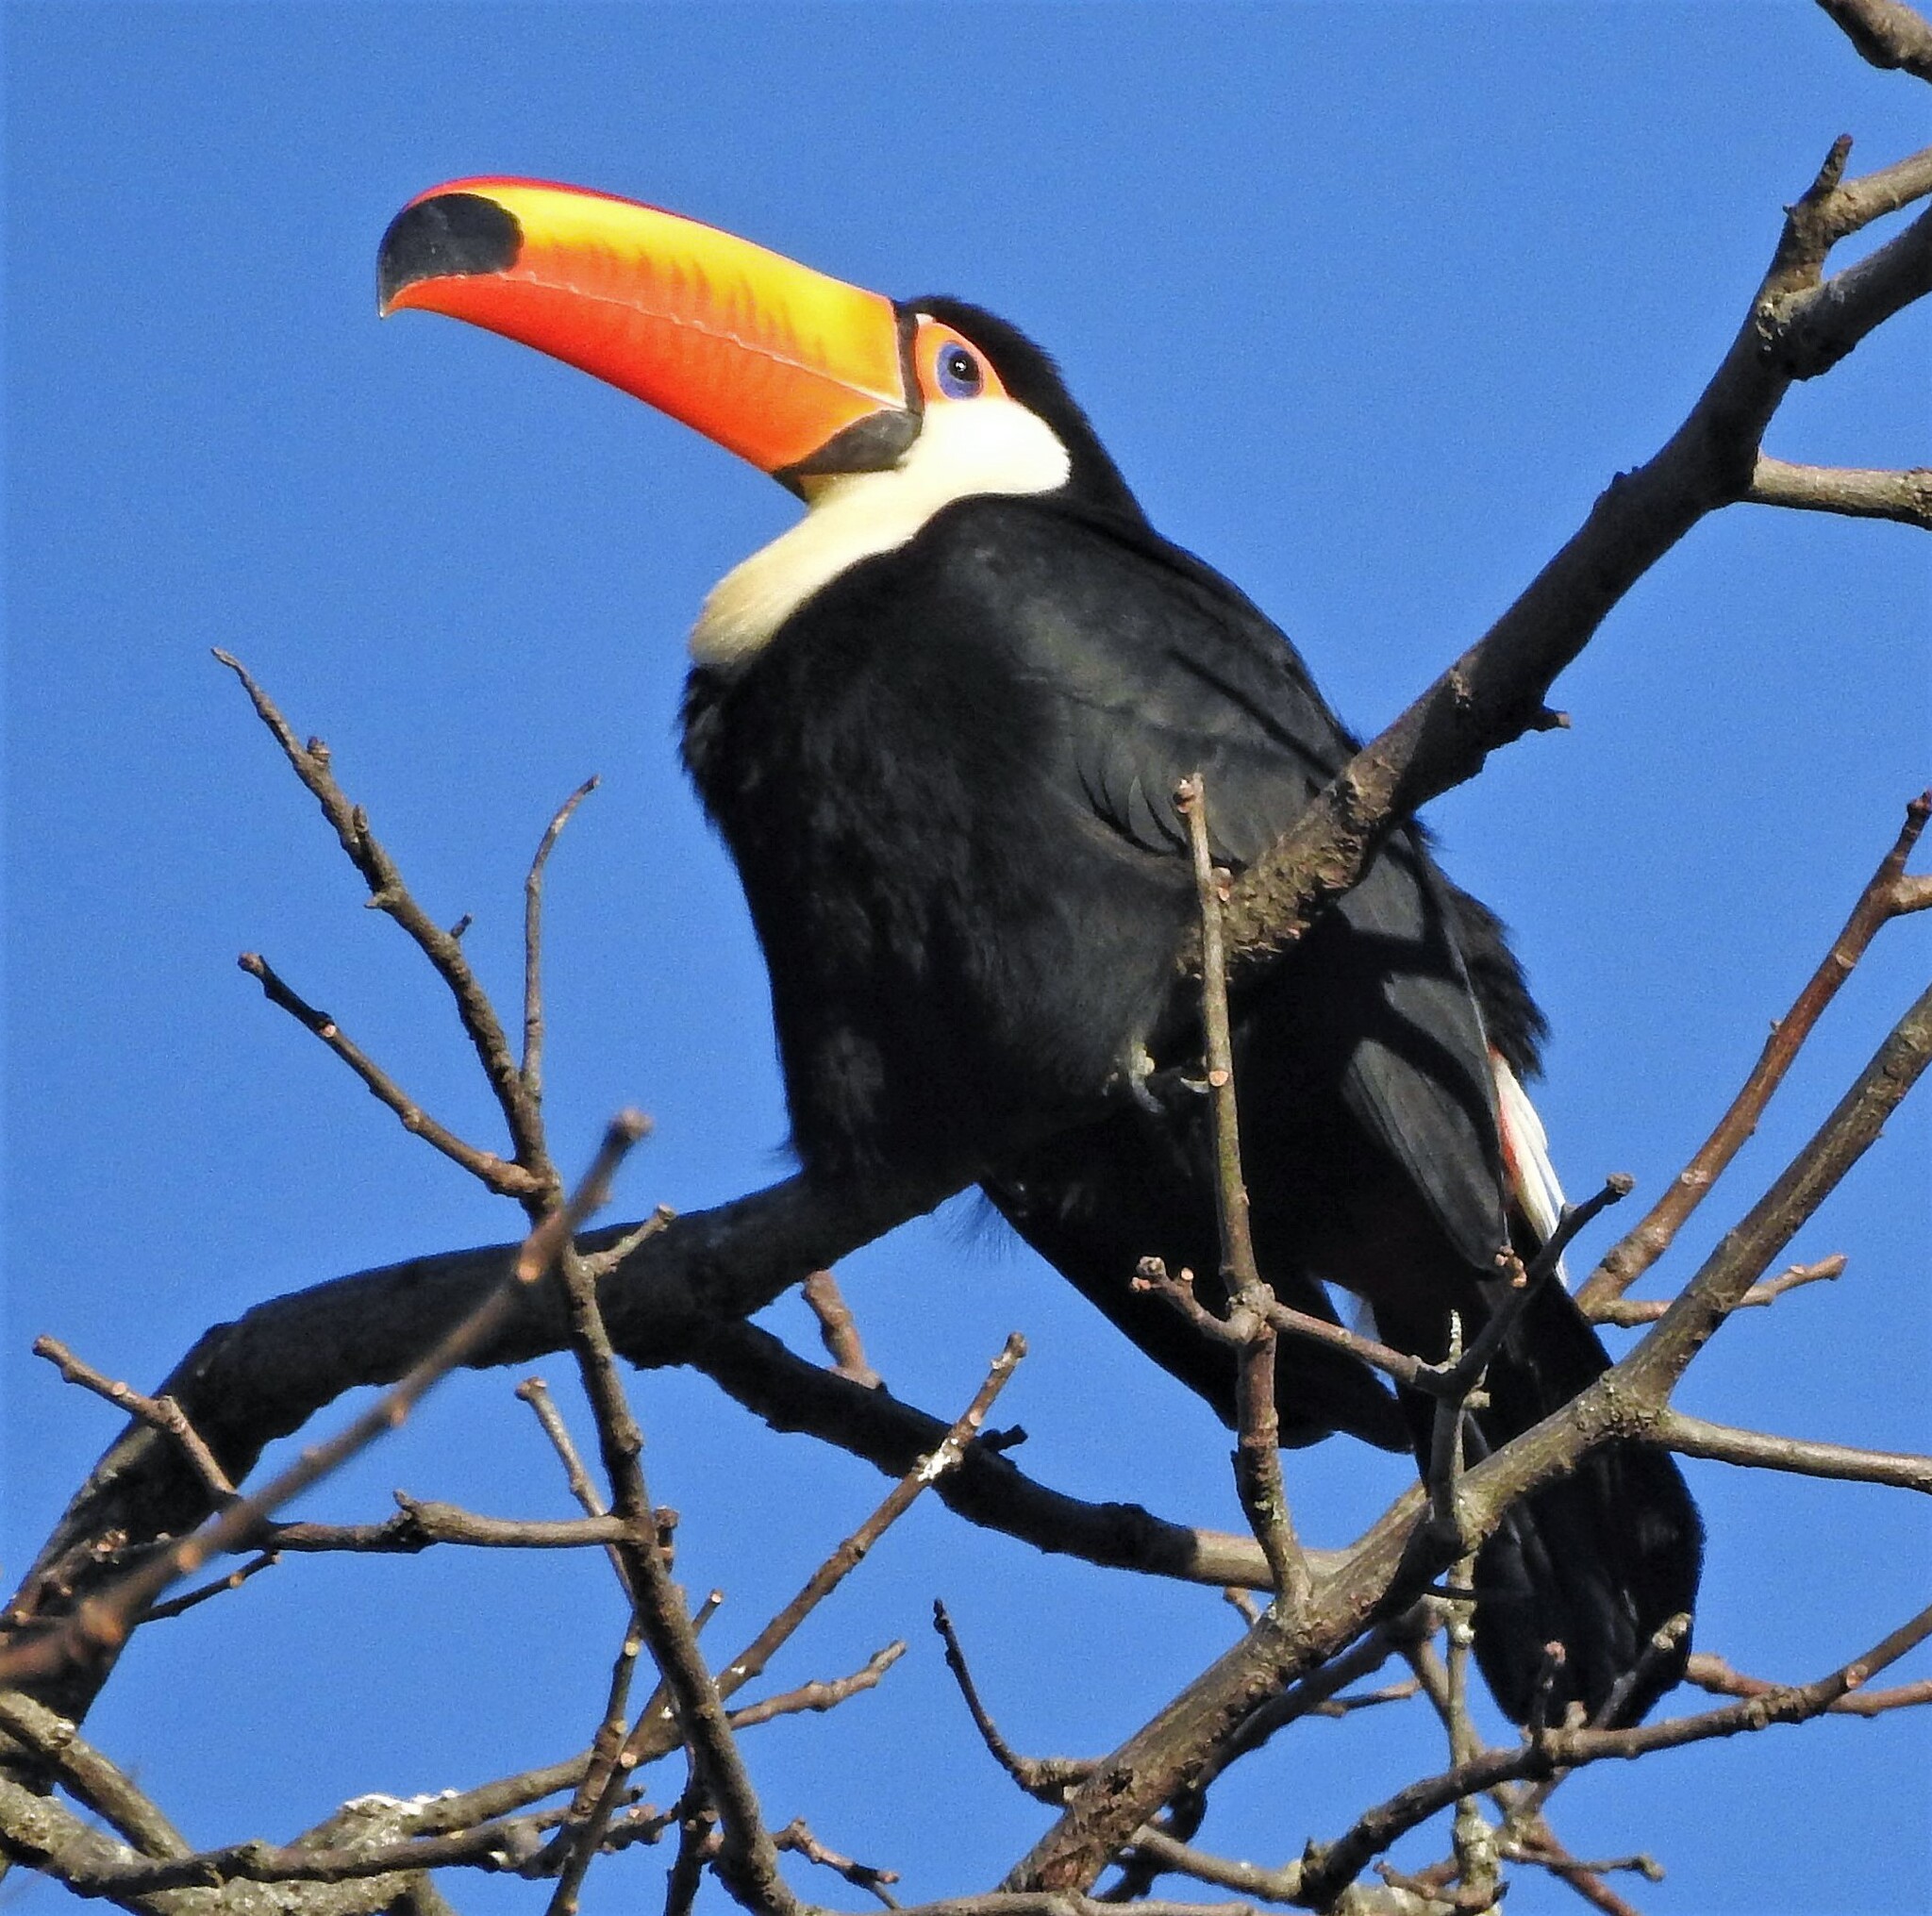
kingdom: Animalia
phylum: Chordata
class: Aves
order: Piciformes
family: Ramphastidae
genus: Ramphastos
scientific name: Ramphastos toco
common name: Toco toucan
